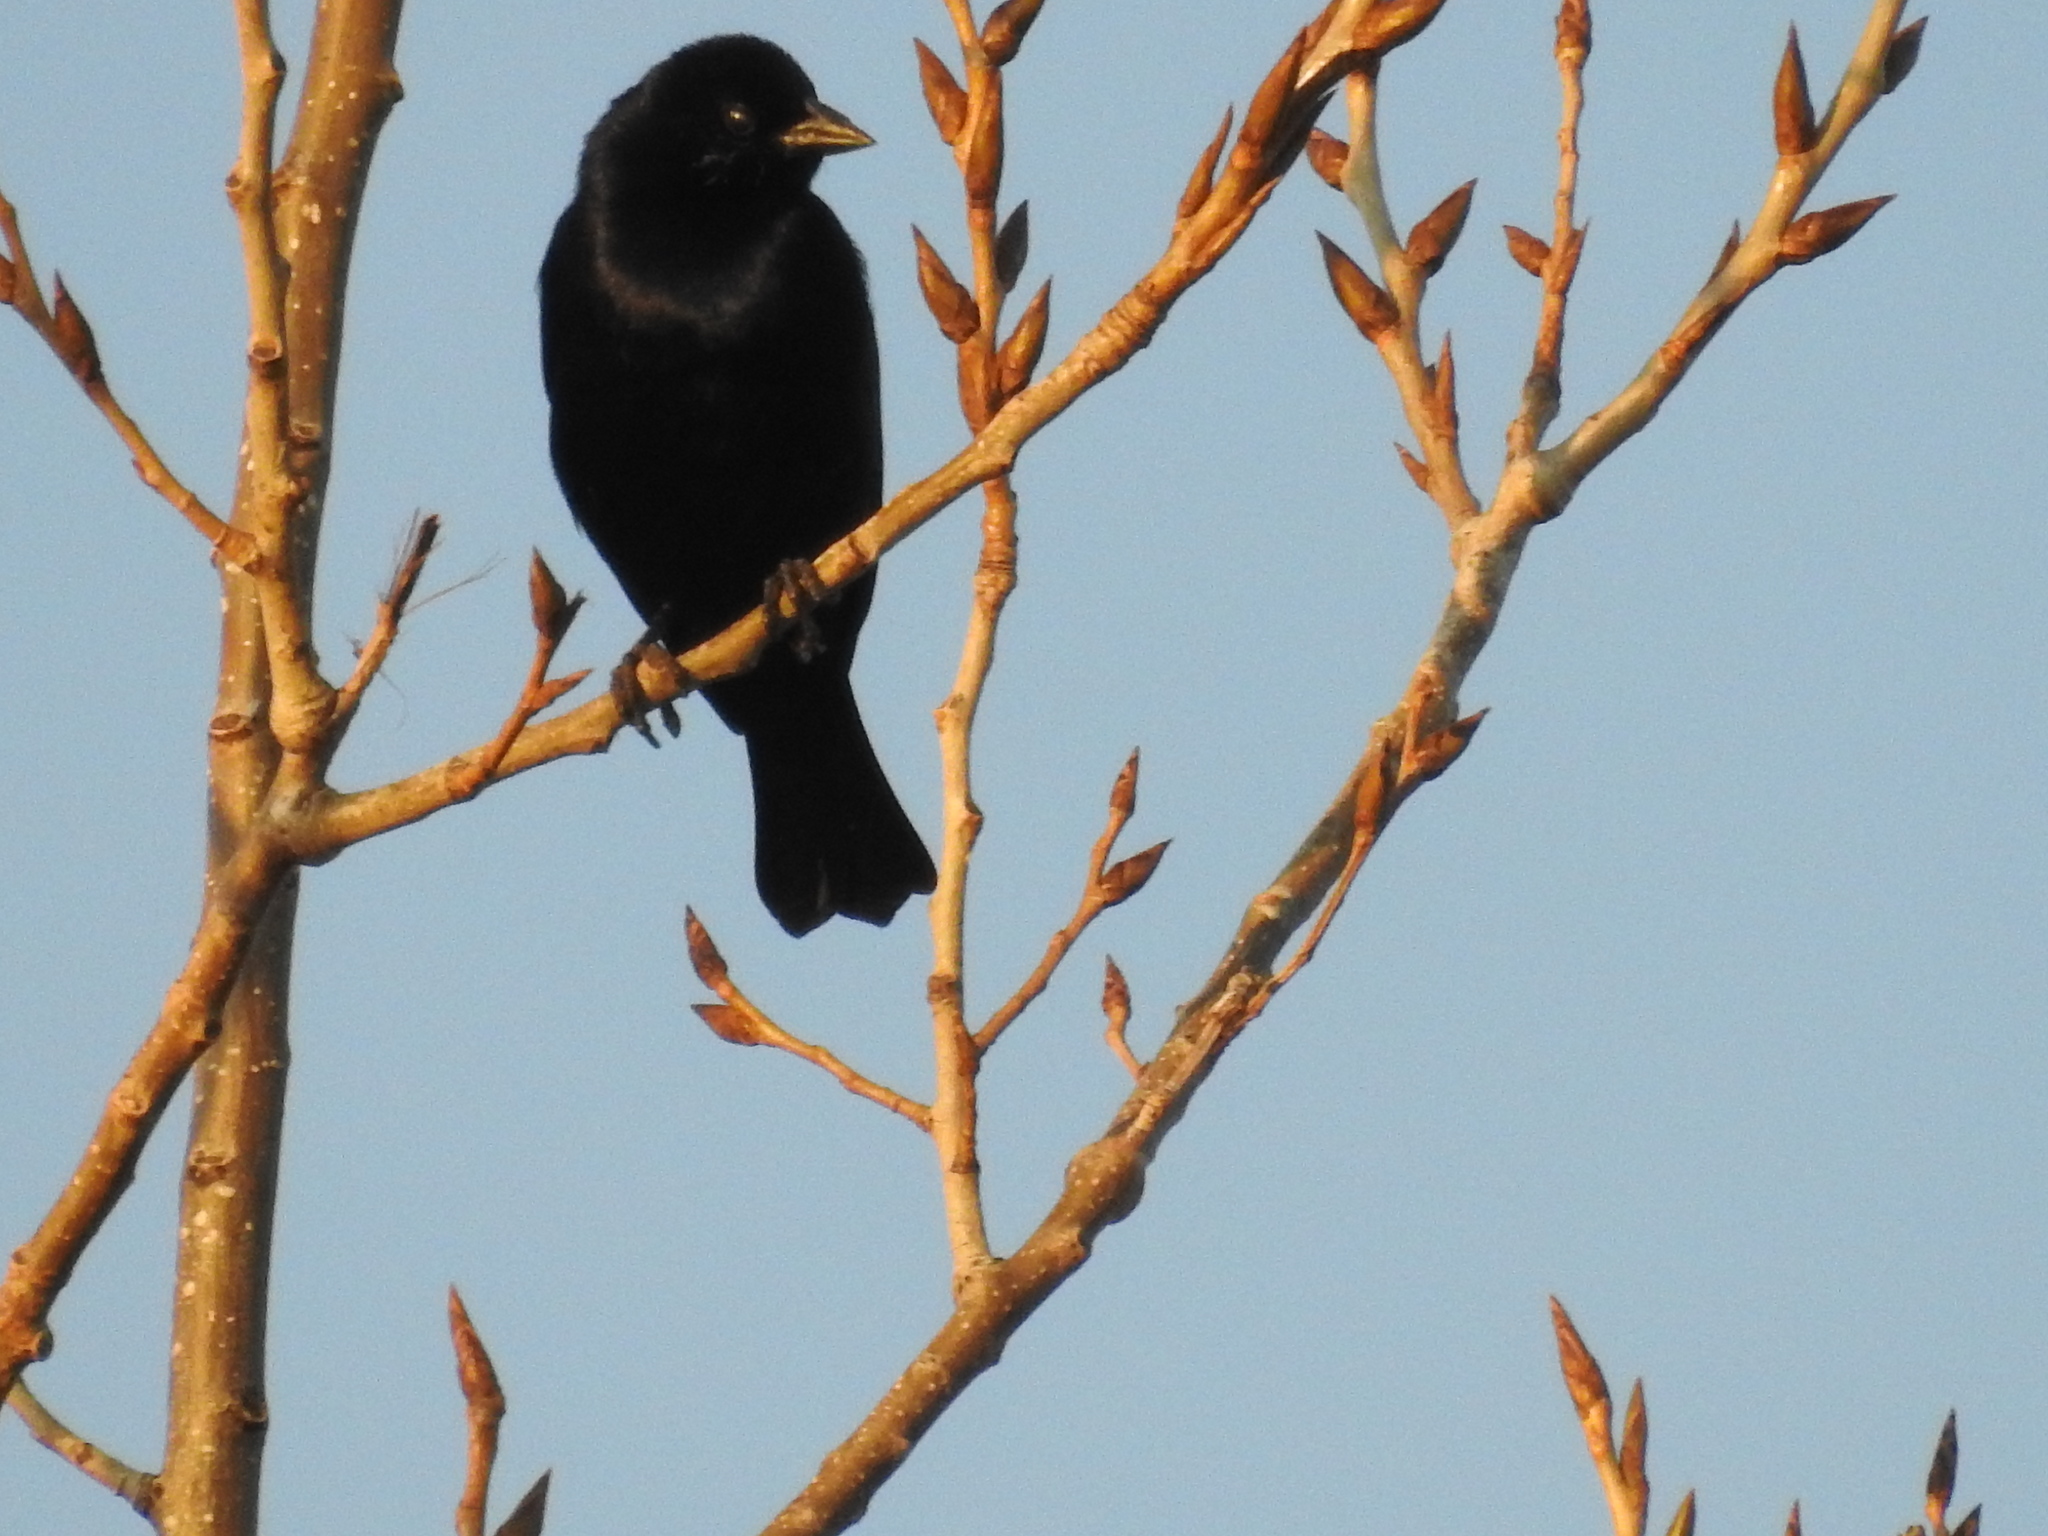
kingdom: Animalia
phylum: Chordata
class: Aves
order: Passeriformes
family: Icteridae
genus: Molothrus
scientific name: Molothrus bonariensis
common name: Shiny cowbird
